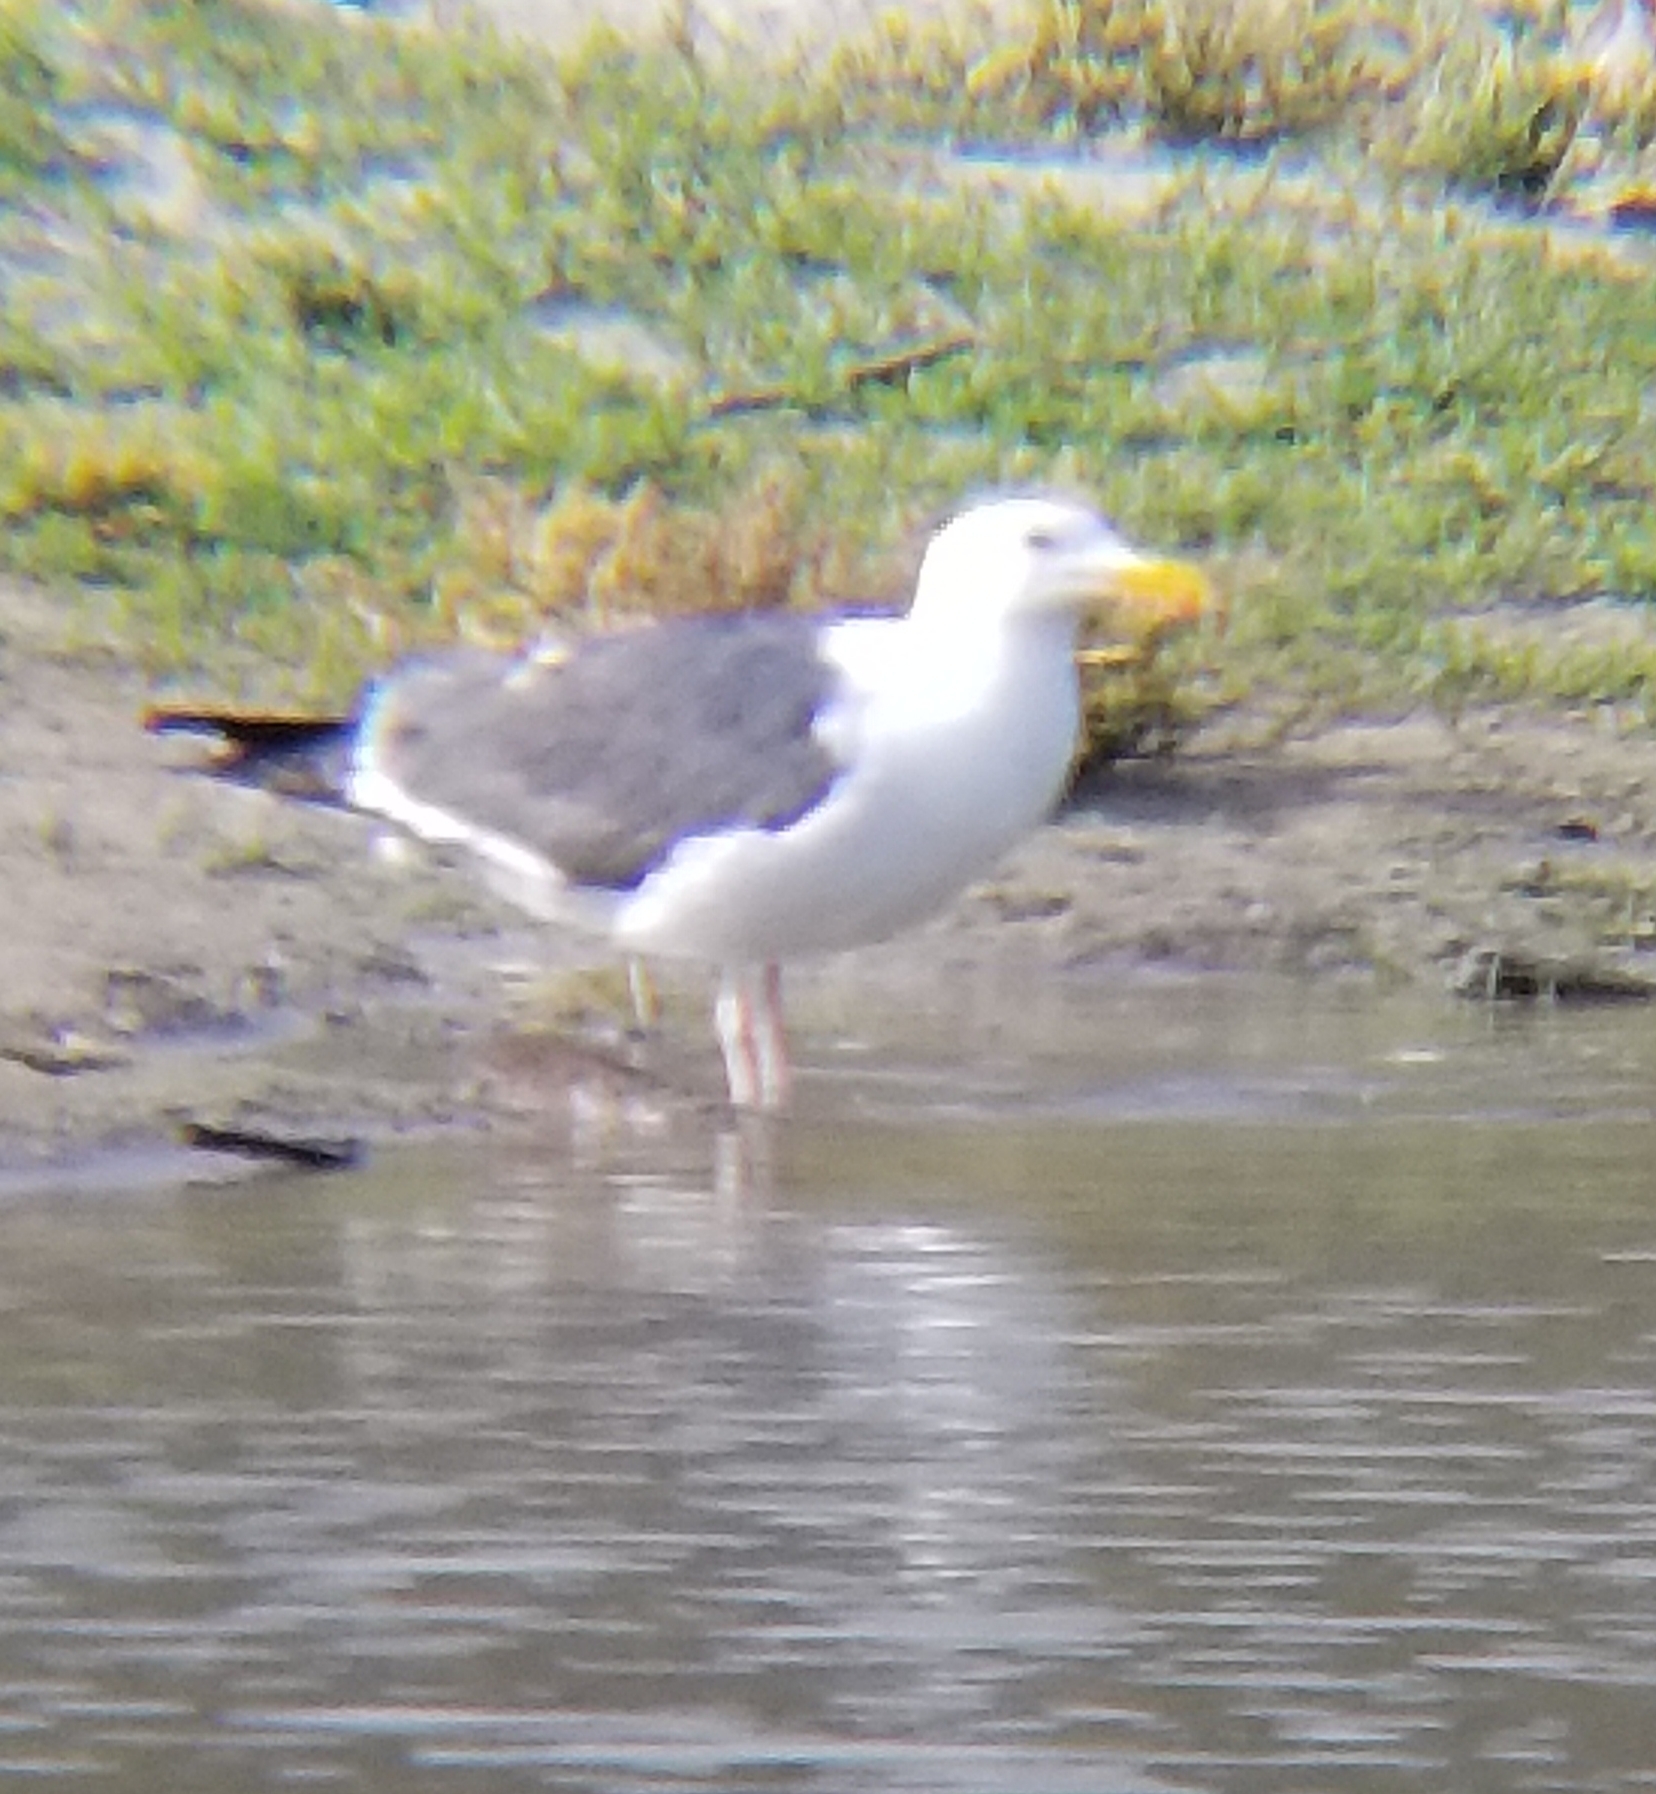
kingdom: Animalia
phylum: Chordata
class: Aves
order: Charadriiformes
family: Laridae
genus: Larus
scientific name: Larus occidentalis
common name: Western gull
